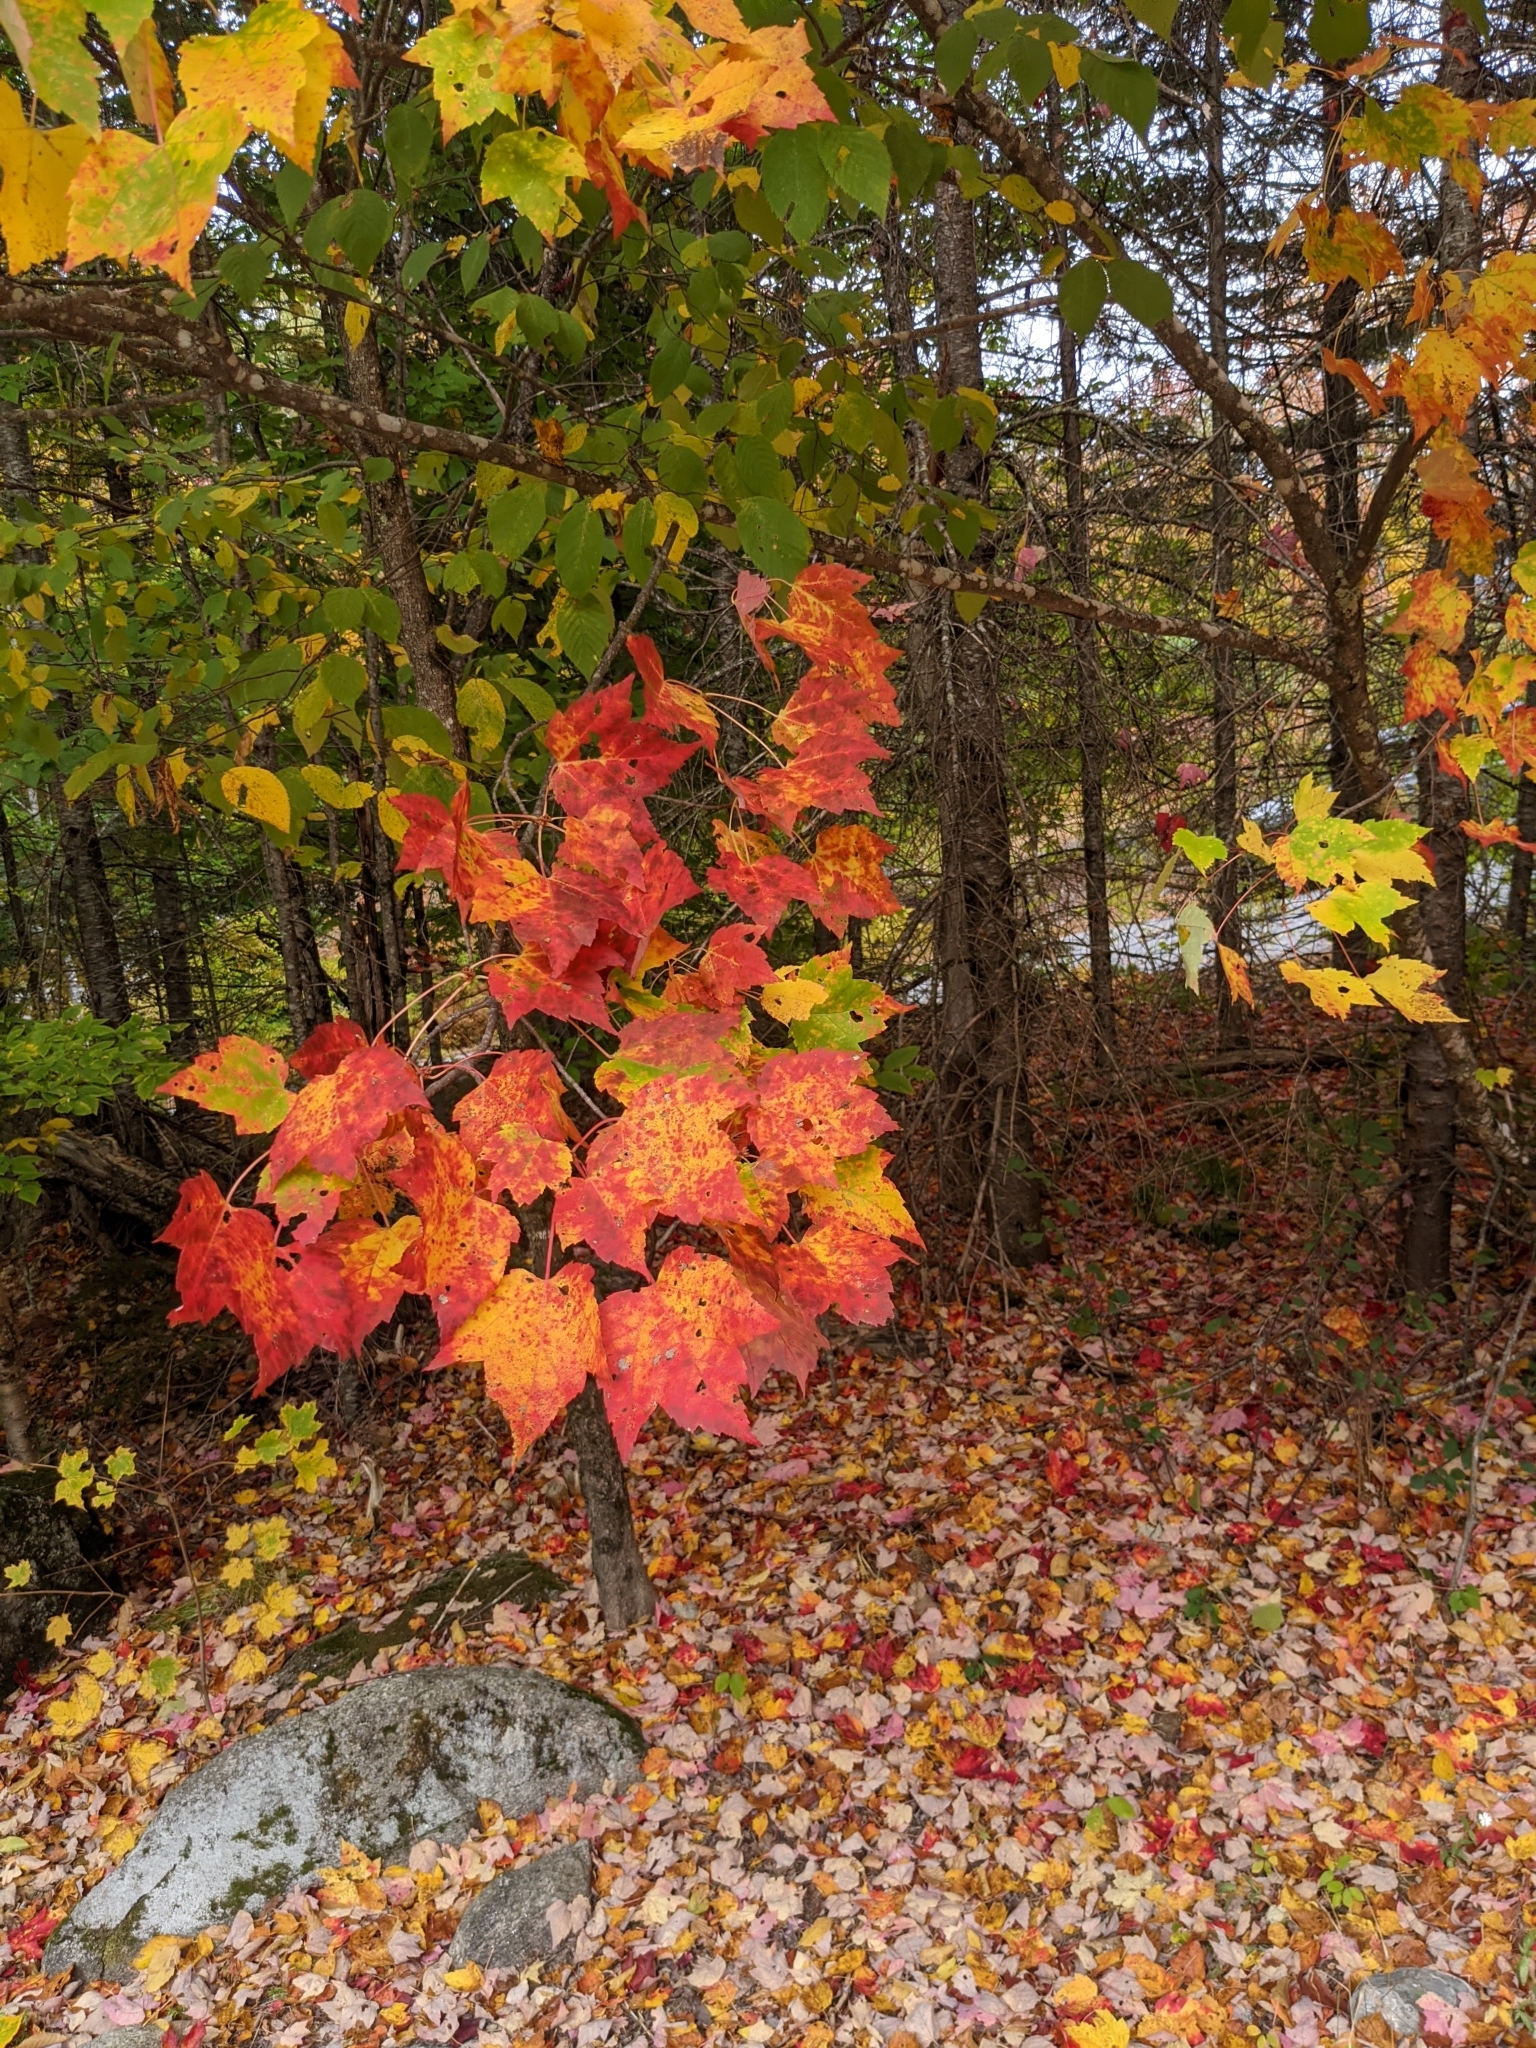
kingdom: Plantae
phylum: Tracheophyta
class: Magnoliopsida
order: Sapindales
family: Sapindaceae
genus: Acer
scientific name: Acer rubrum
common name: Red maple
